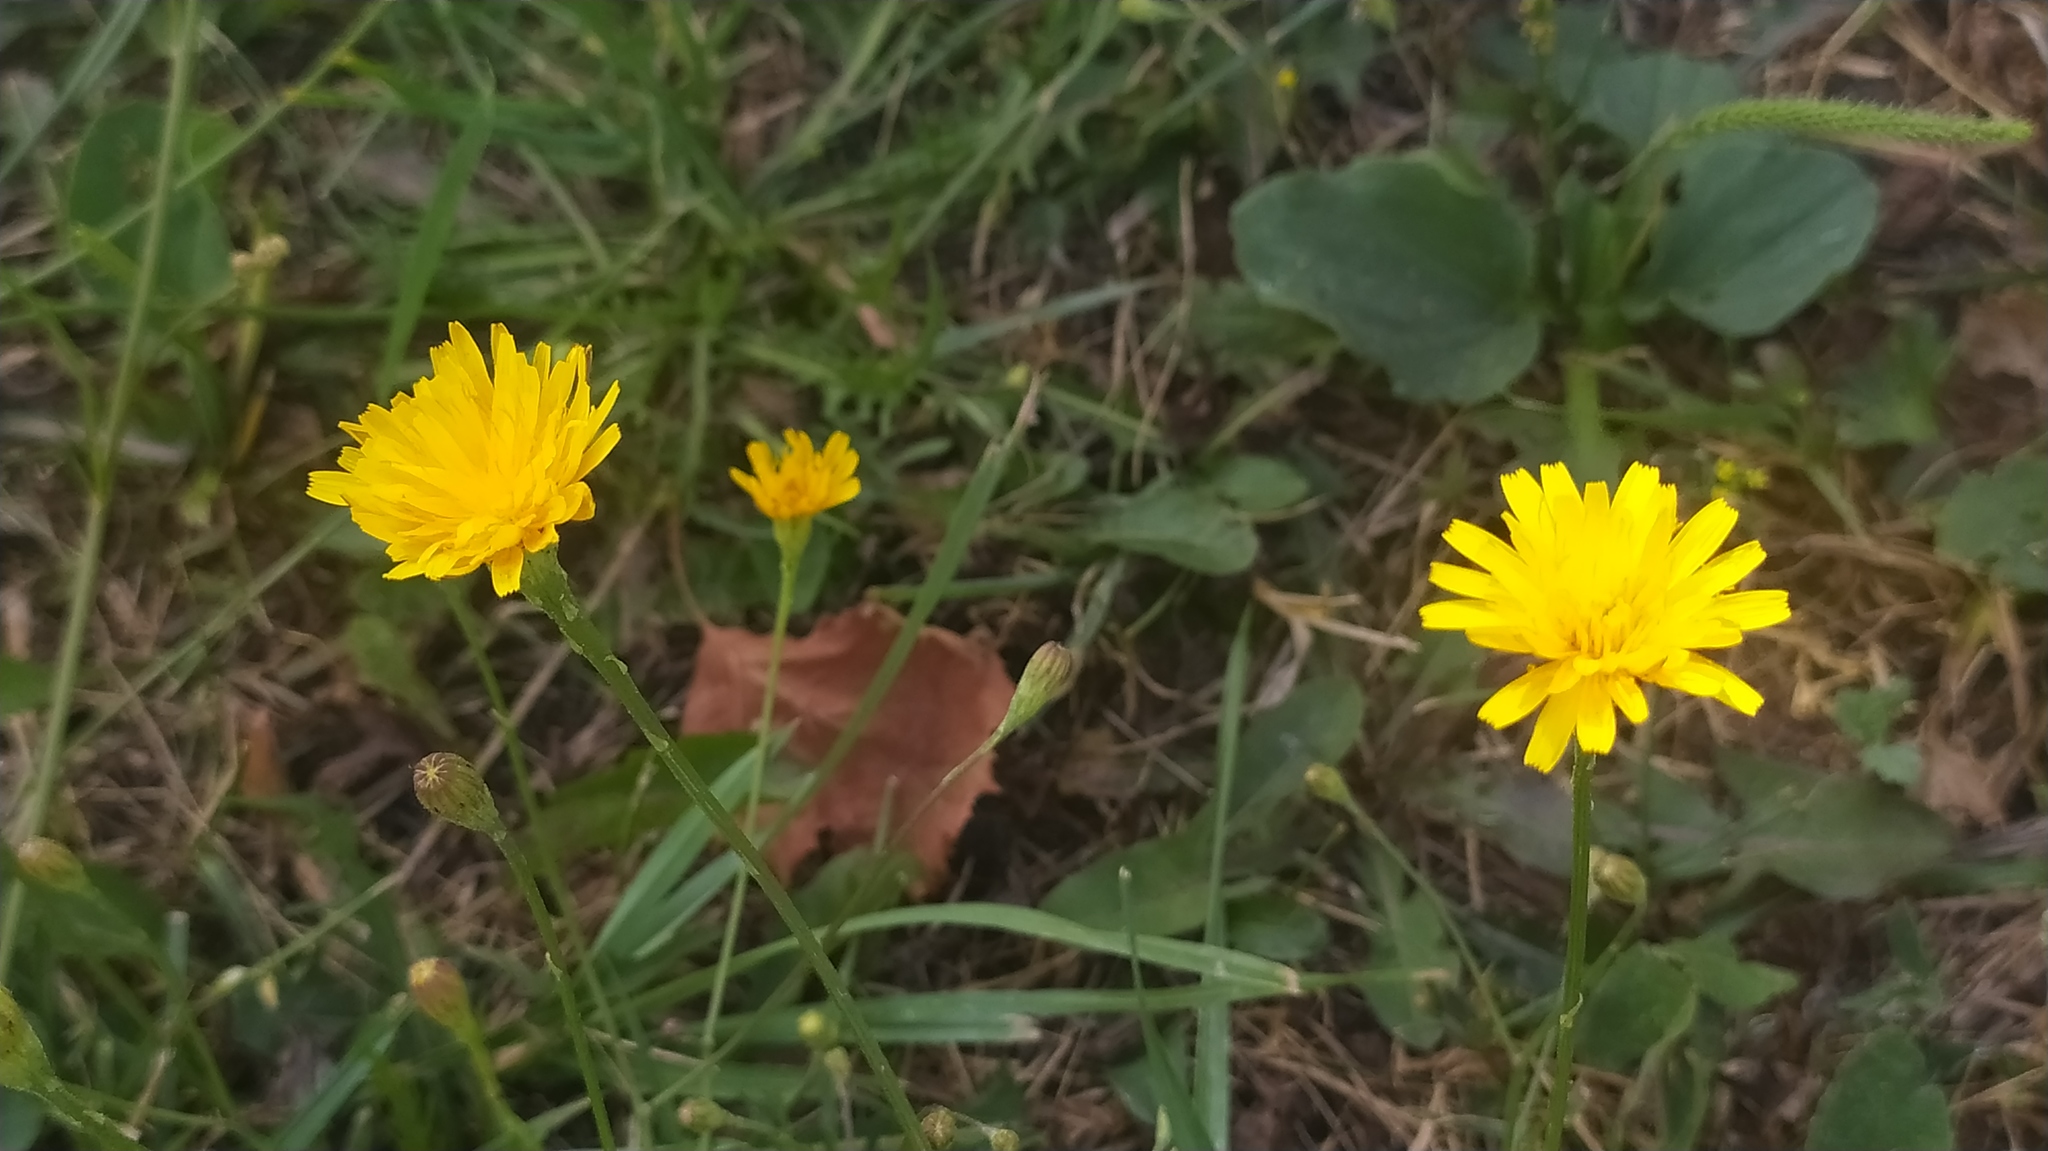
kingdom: Plantae
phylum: Tracheophyta
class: Magnoliopsida
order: Asterales
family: Asteraceae
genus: Scorzoneroides
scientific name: Scorzoneroides autumnalis
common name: Autumn hawkbit
